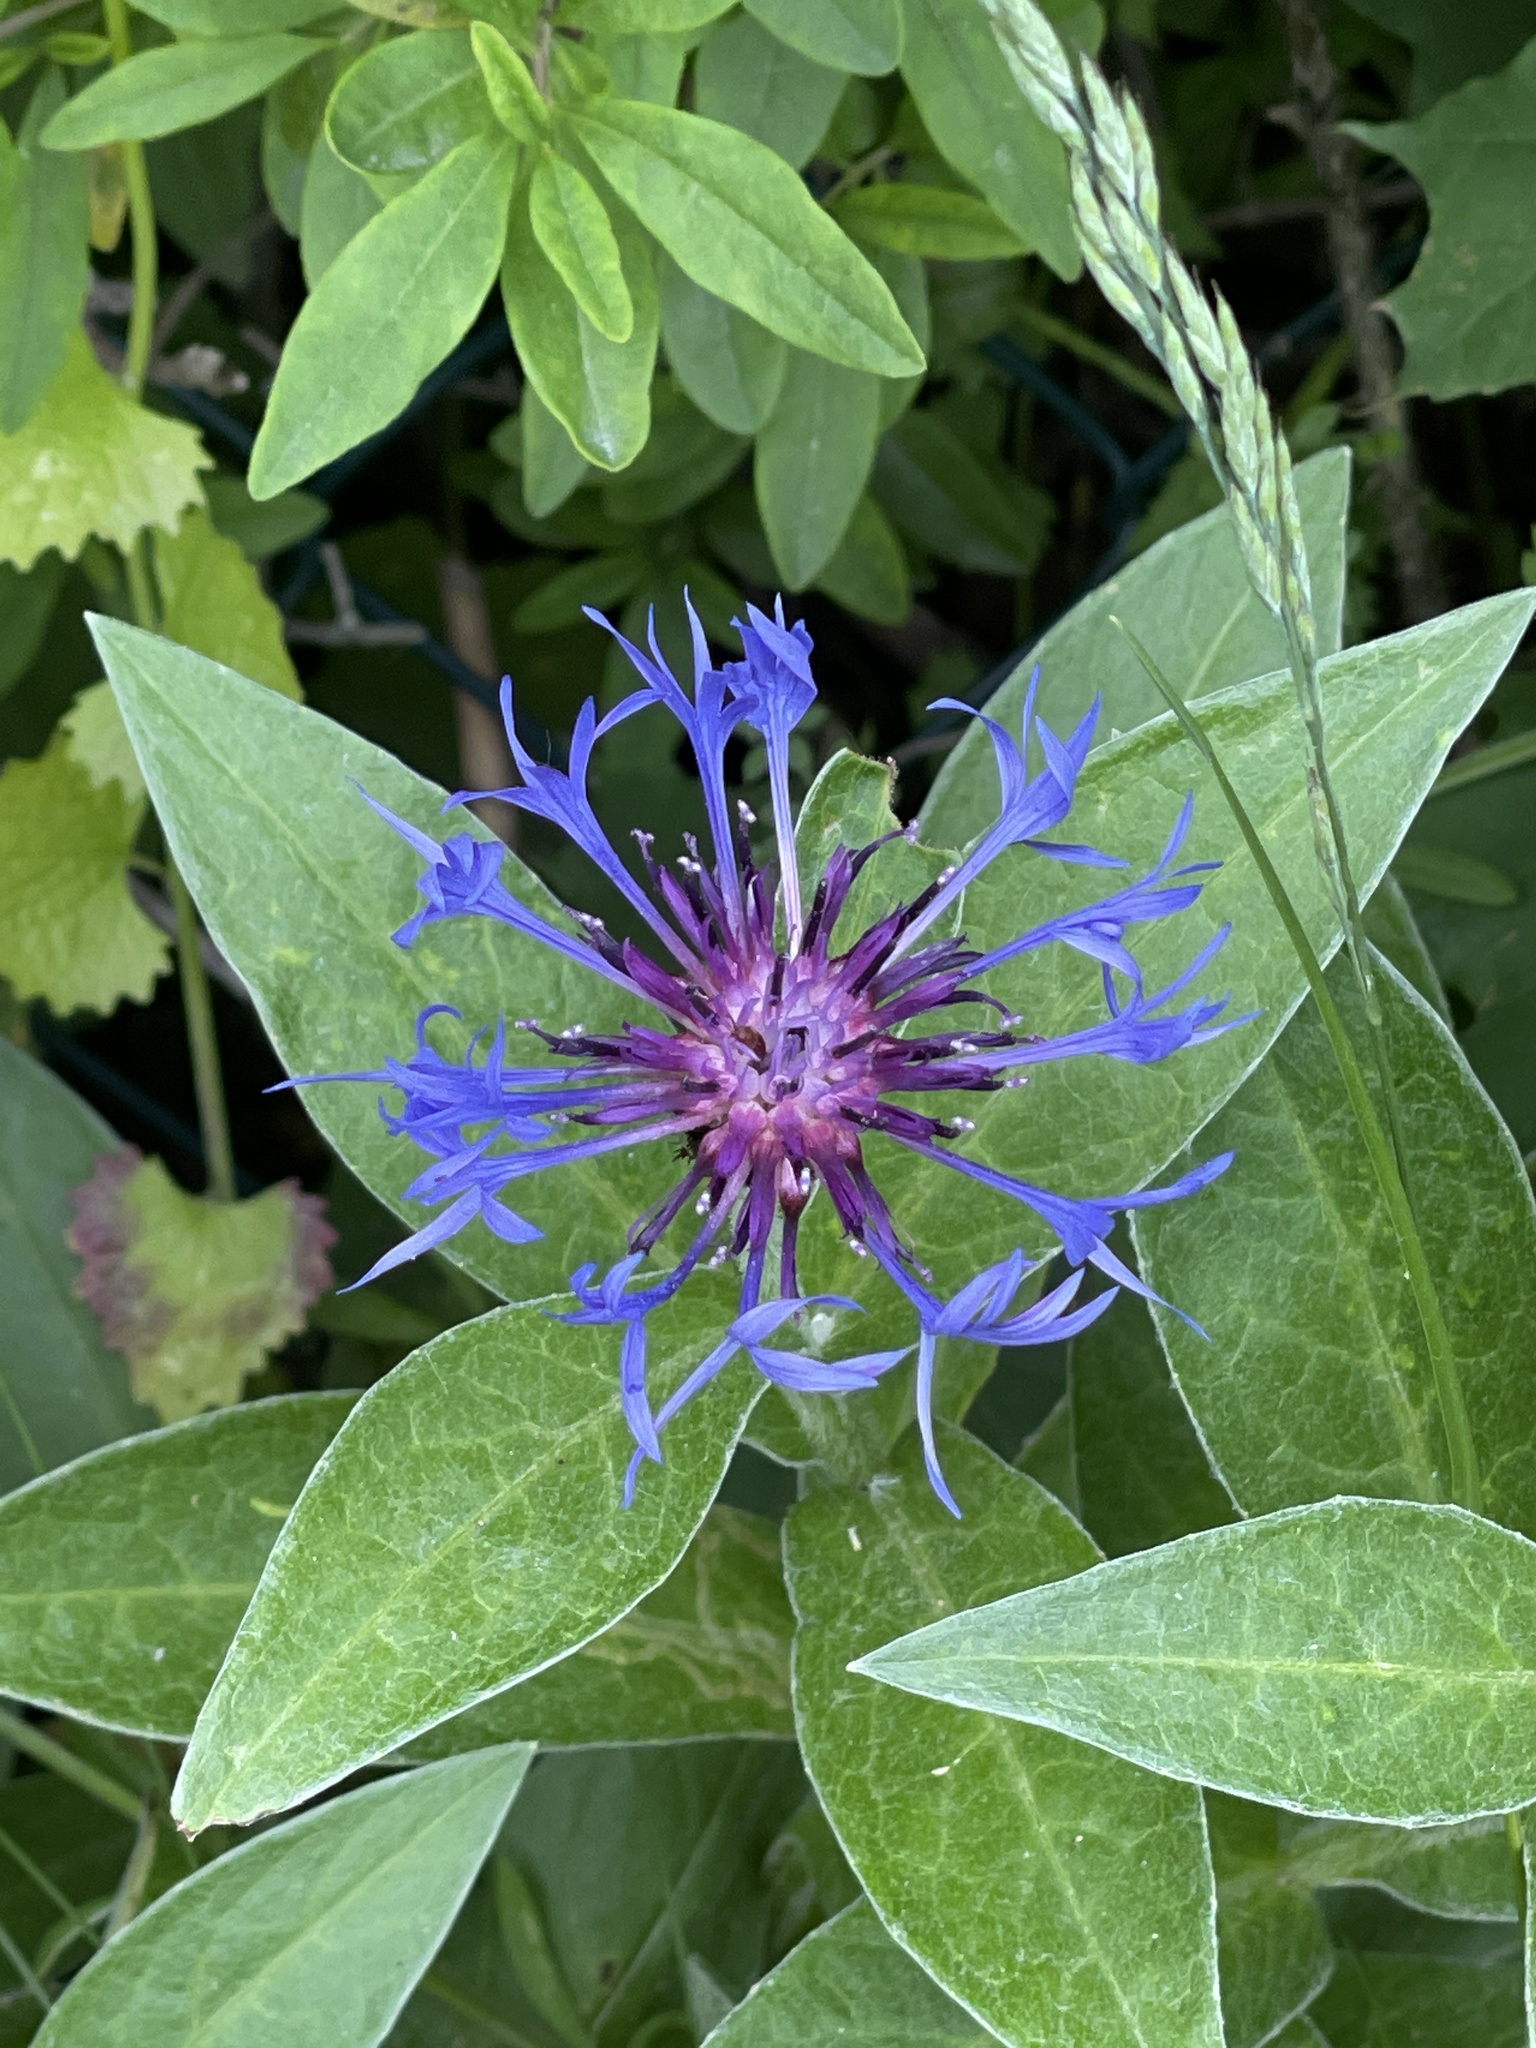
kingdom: Plantae
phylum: Tracheophyta
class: Magnoliopsida
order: Asterales
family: Asteraceae
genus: Centaurea
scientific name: Centaurea montana
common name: Perennial cornflower
